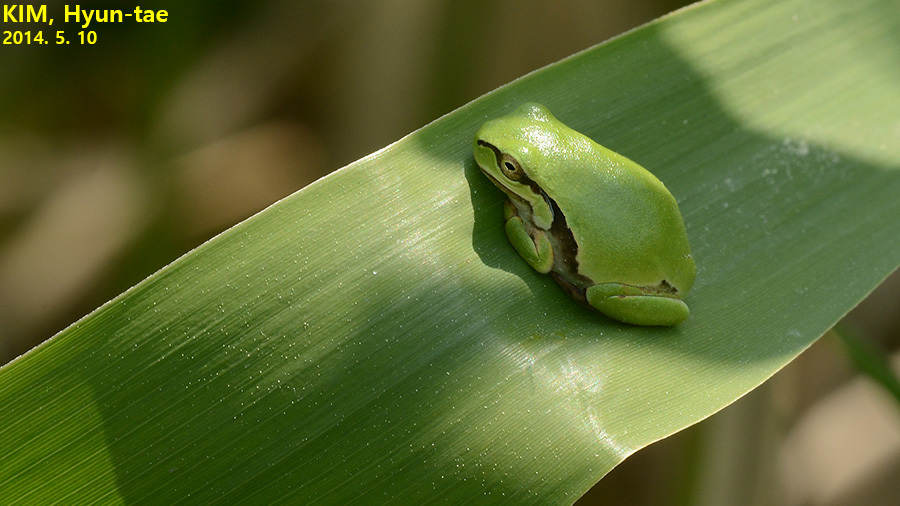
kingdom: Animalia
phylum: Chordata
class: Amphibia
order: Anura
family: Hylidae
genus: Dryophytes
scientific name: Dryophytes japonicus
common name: Japanese treefrog
